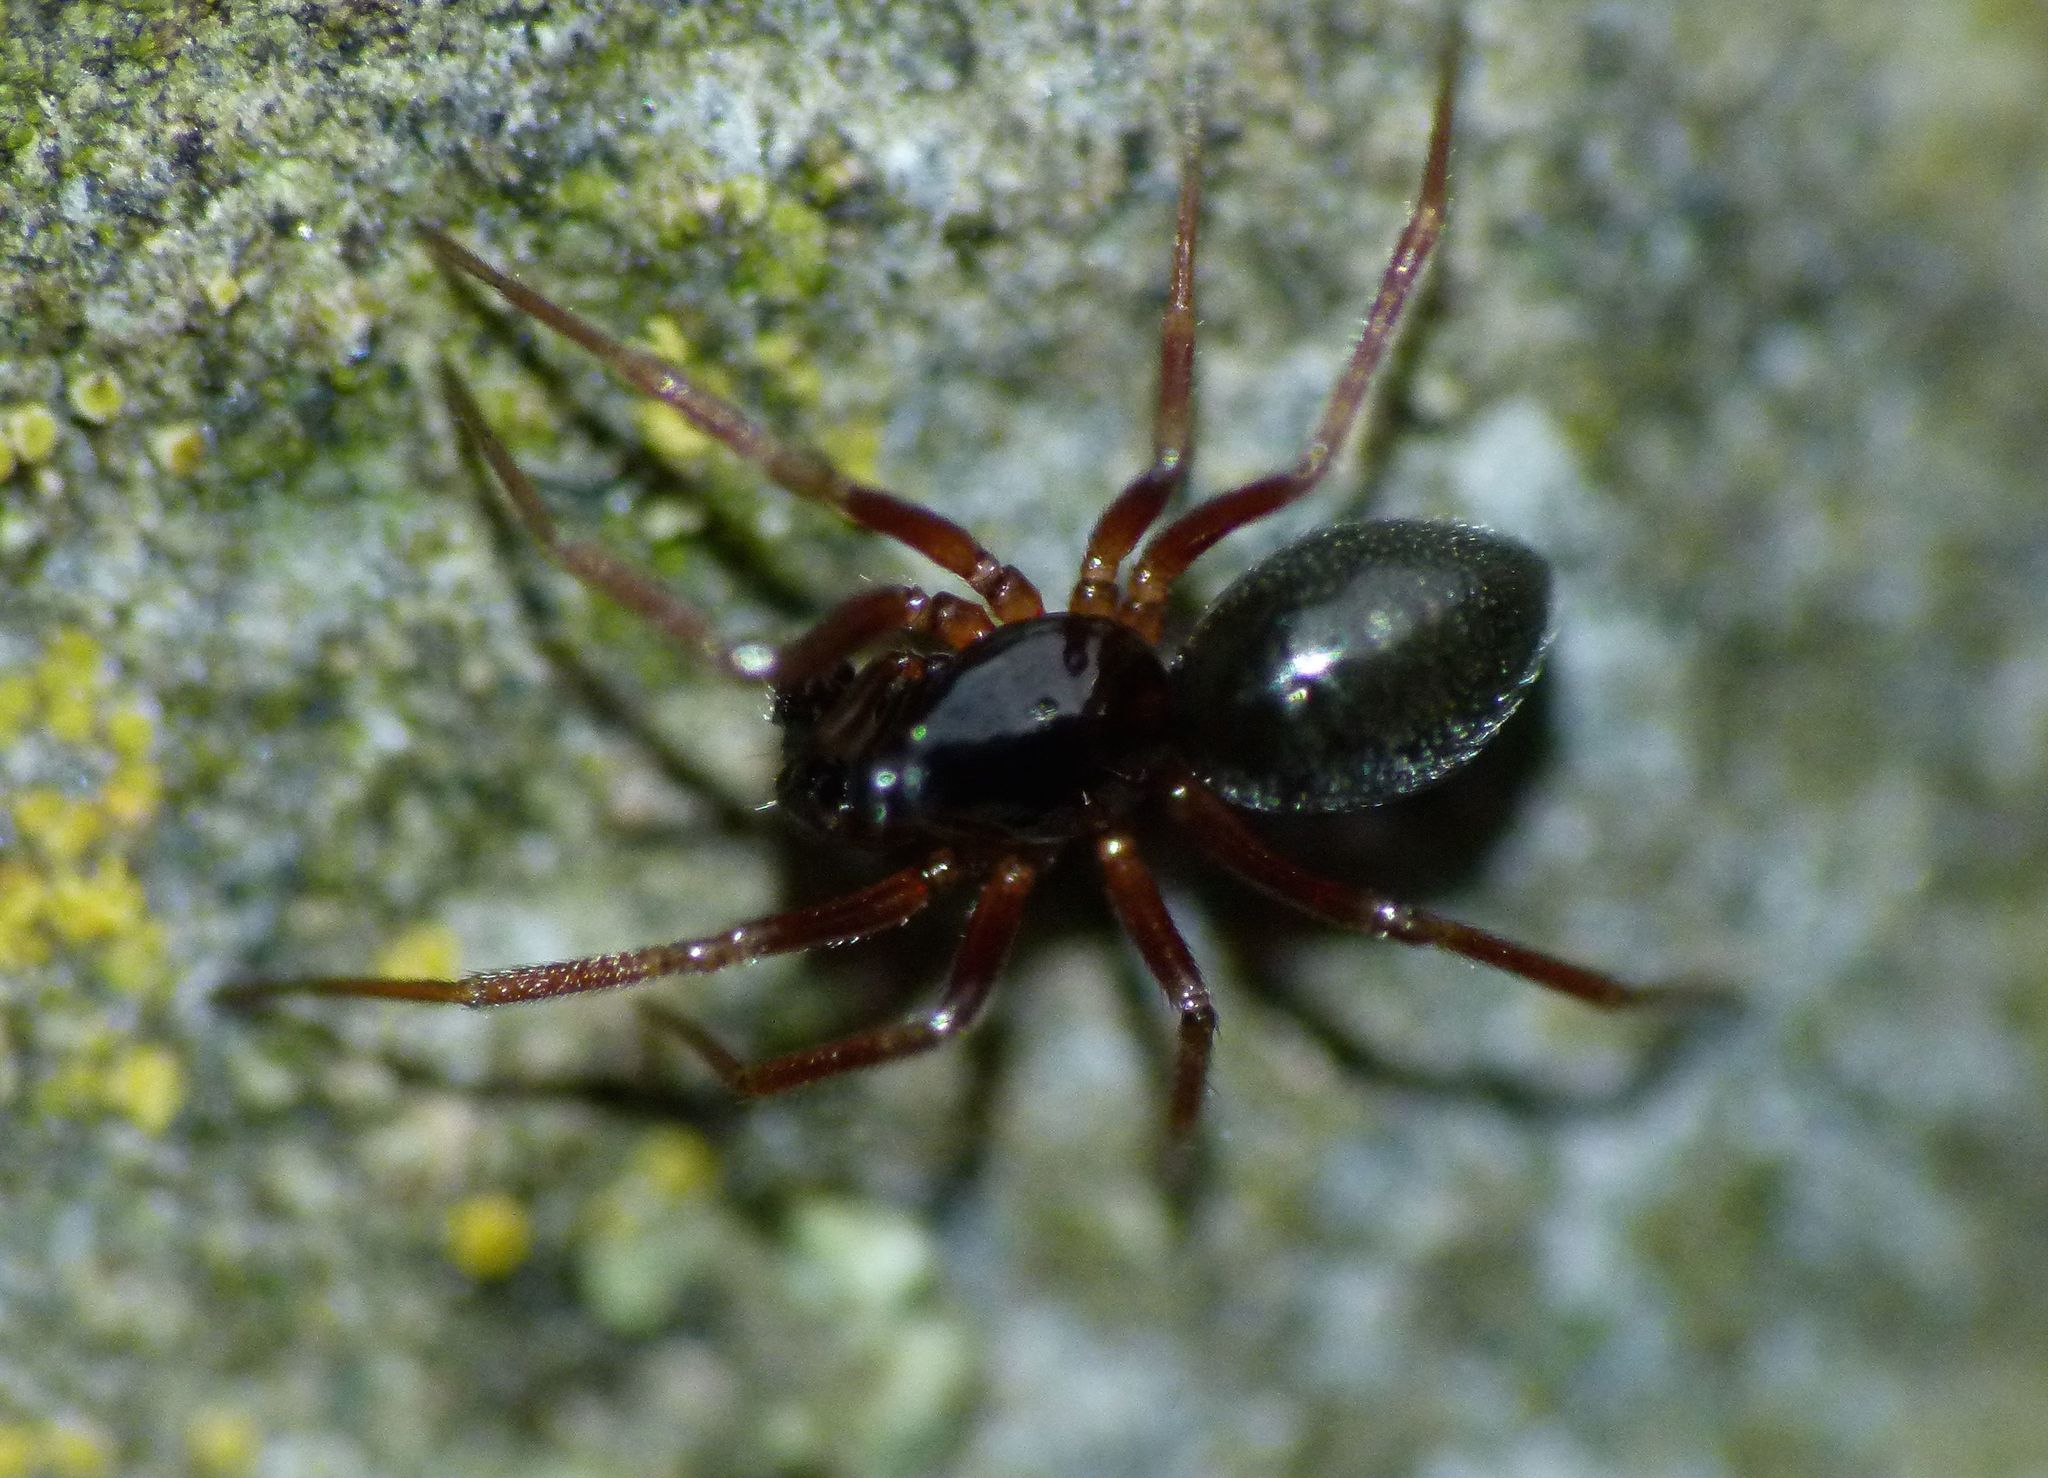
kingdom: Animalia
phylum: Arthropoda
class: Arachnida
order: Araneae
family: Linyphiidae
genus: Diplocephalus
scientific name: Diplocephalus cristatus
